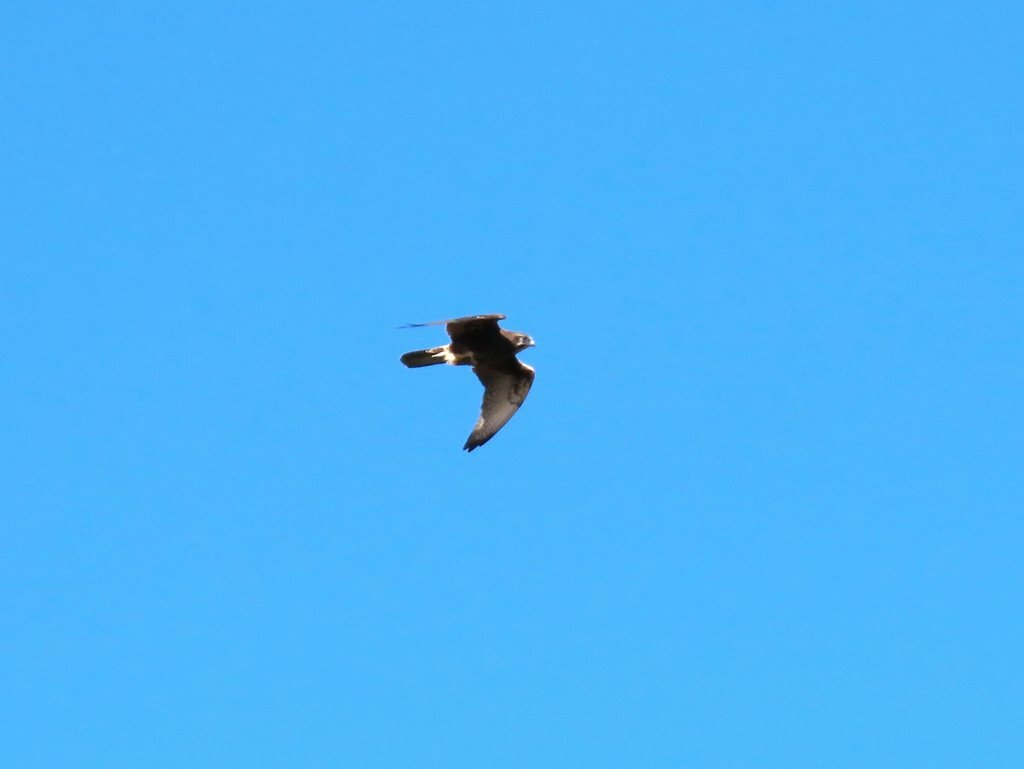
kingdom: Animalia
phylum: Chordata
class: Aves
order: Falconiformes
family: Falconidae
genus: Falco
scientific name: Falco berigora
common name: Brown falcon
